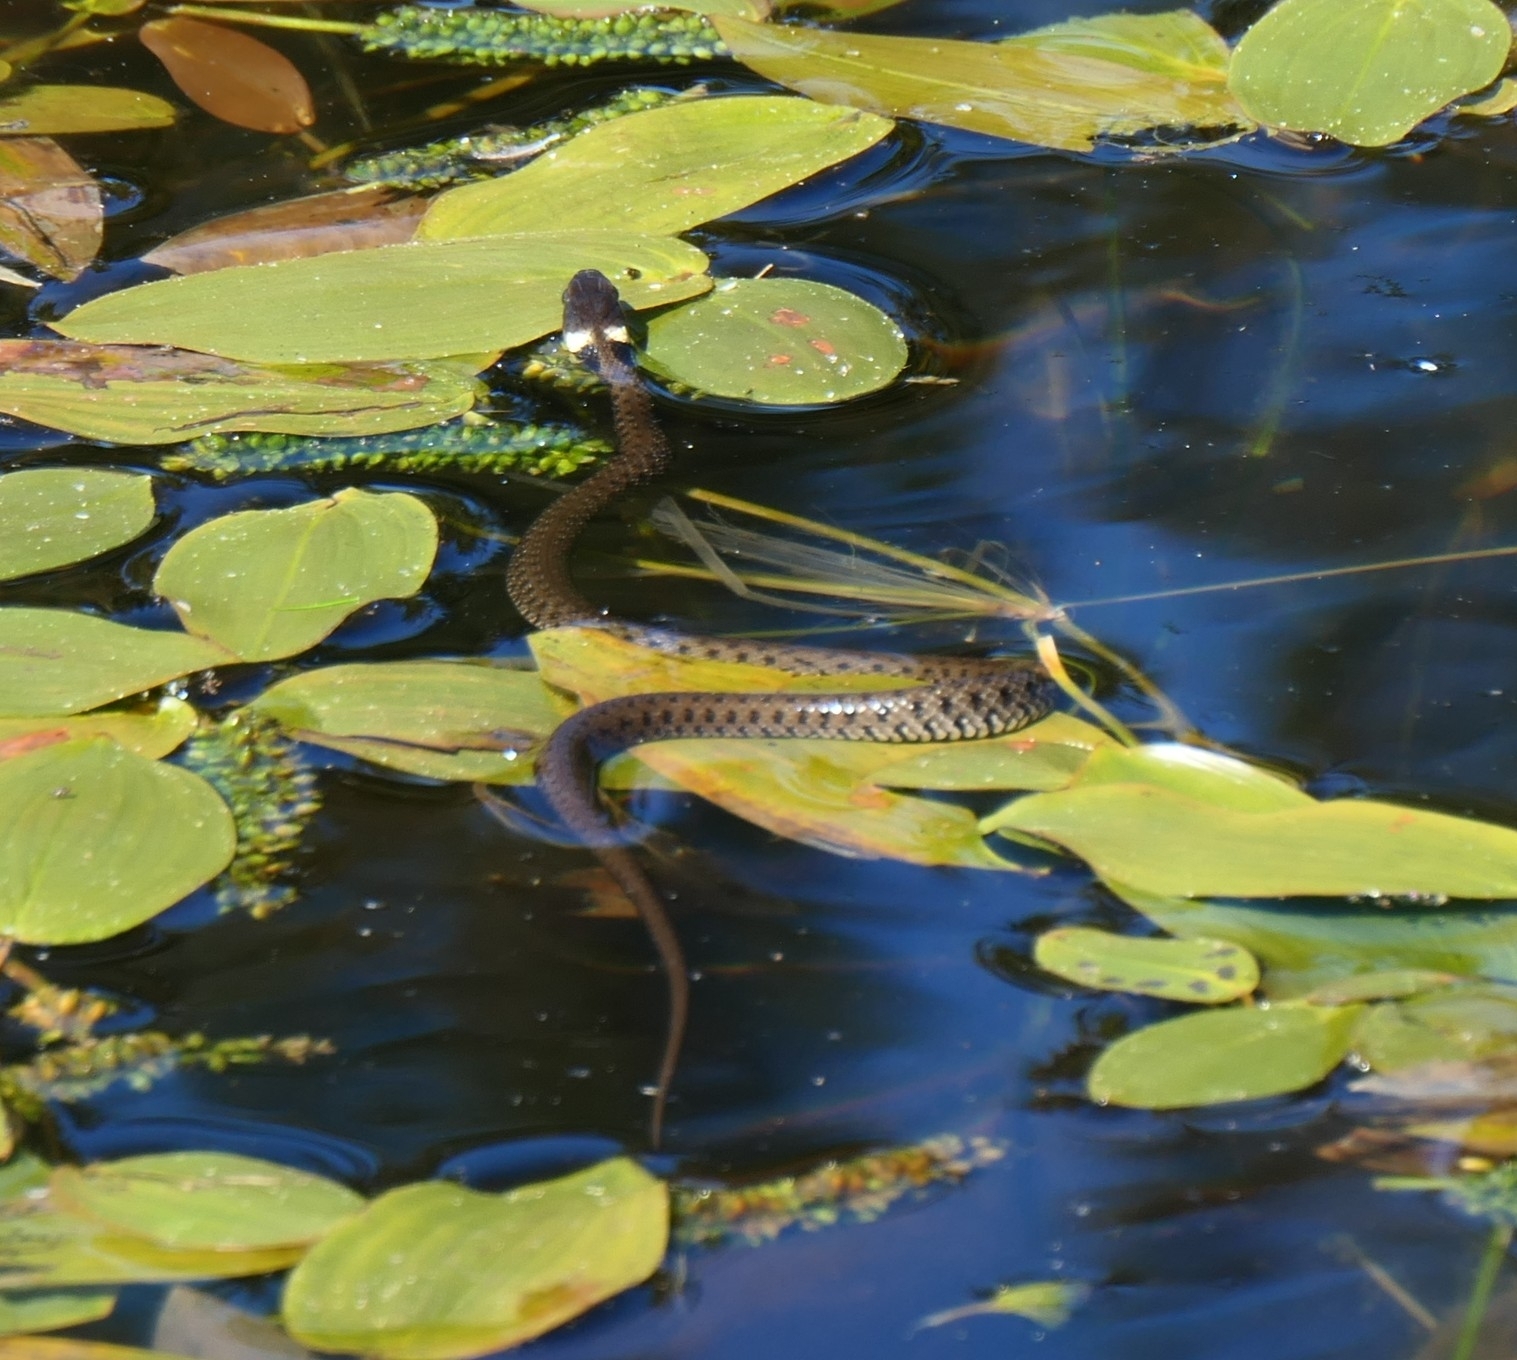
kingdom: Animalia
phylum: Chordata
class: Squamata
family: Colubridae
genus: Natrix
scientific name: Natrix helvetica
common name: Banded grass snake
